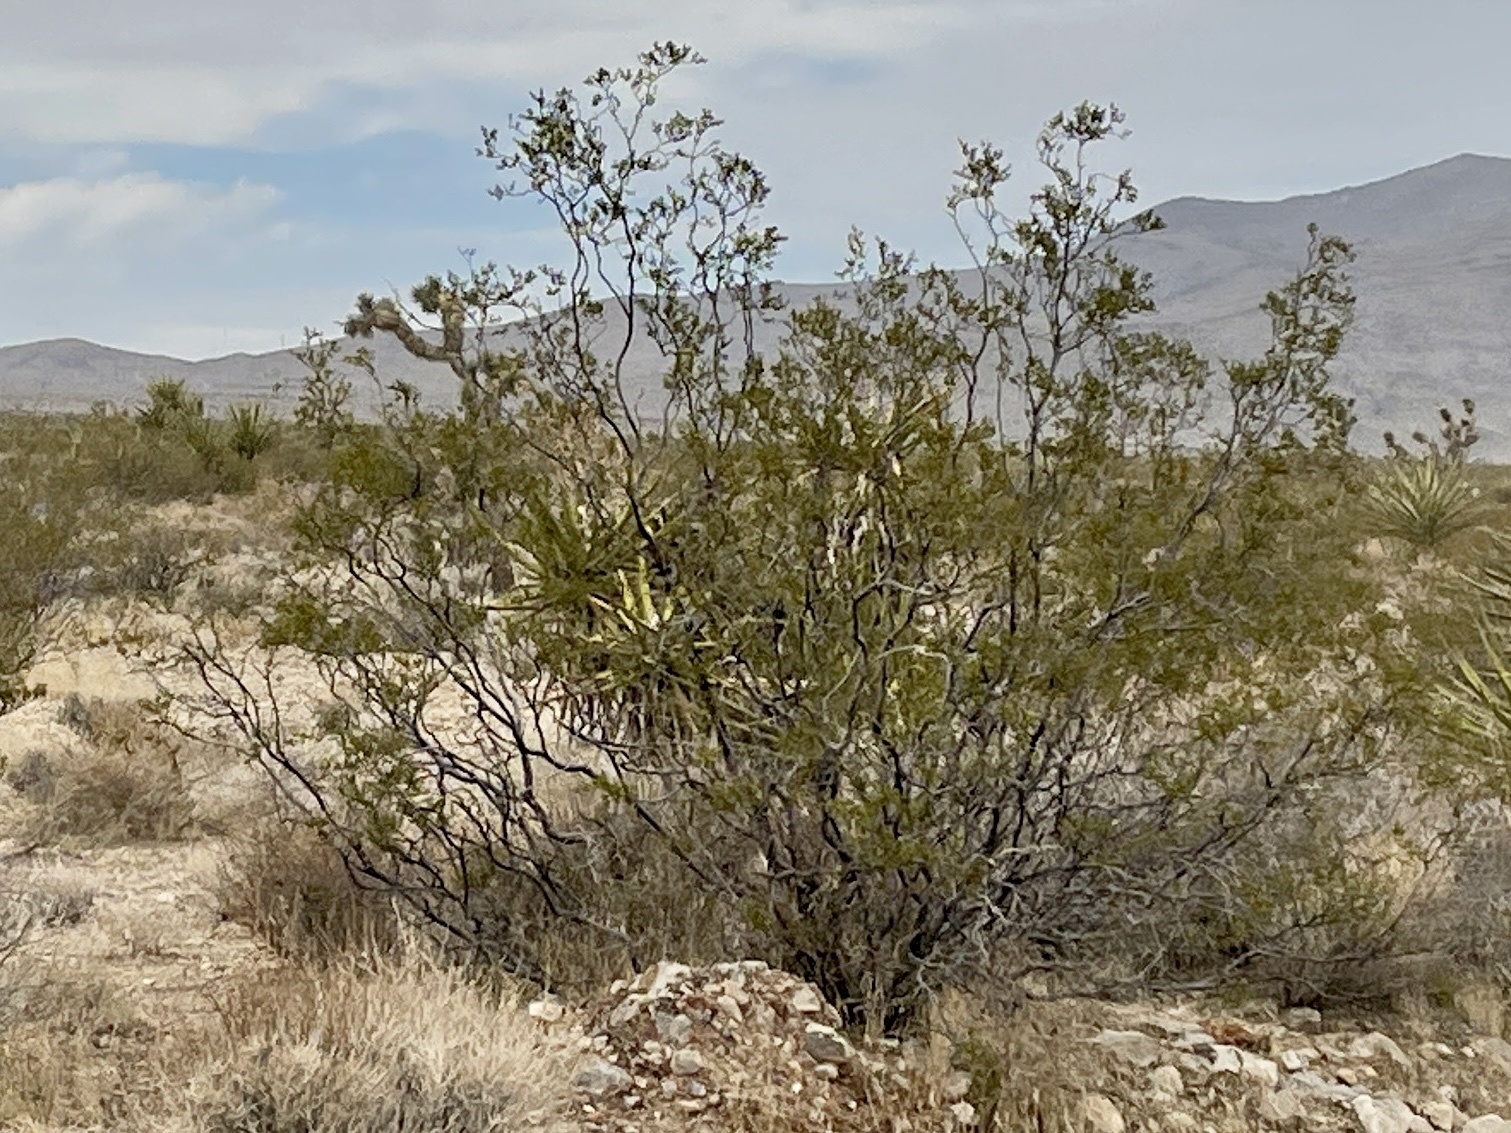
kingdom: Plantae
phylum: Tracheophyta
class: Magnoliopsida
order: Zygophyllales
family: Zygophyllaceae
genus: Larrea
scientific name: Larrea tridentata
